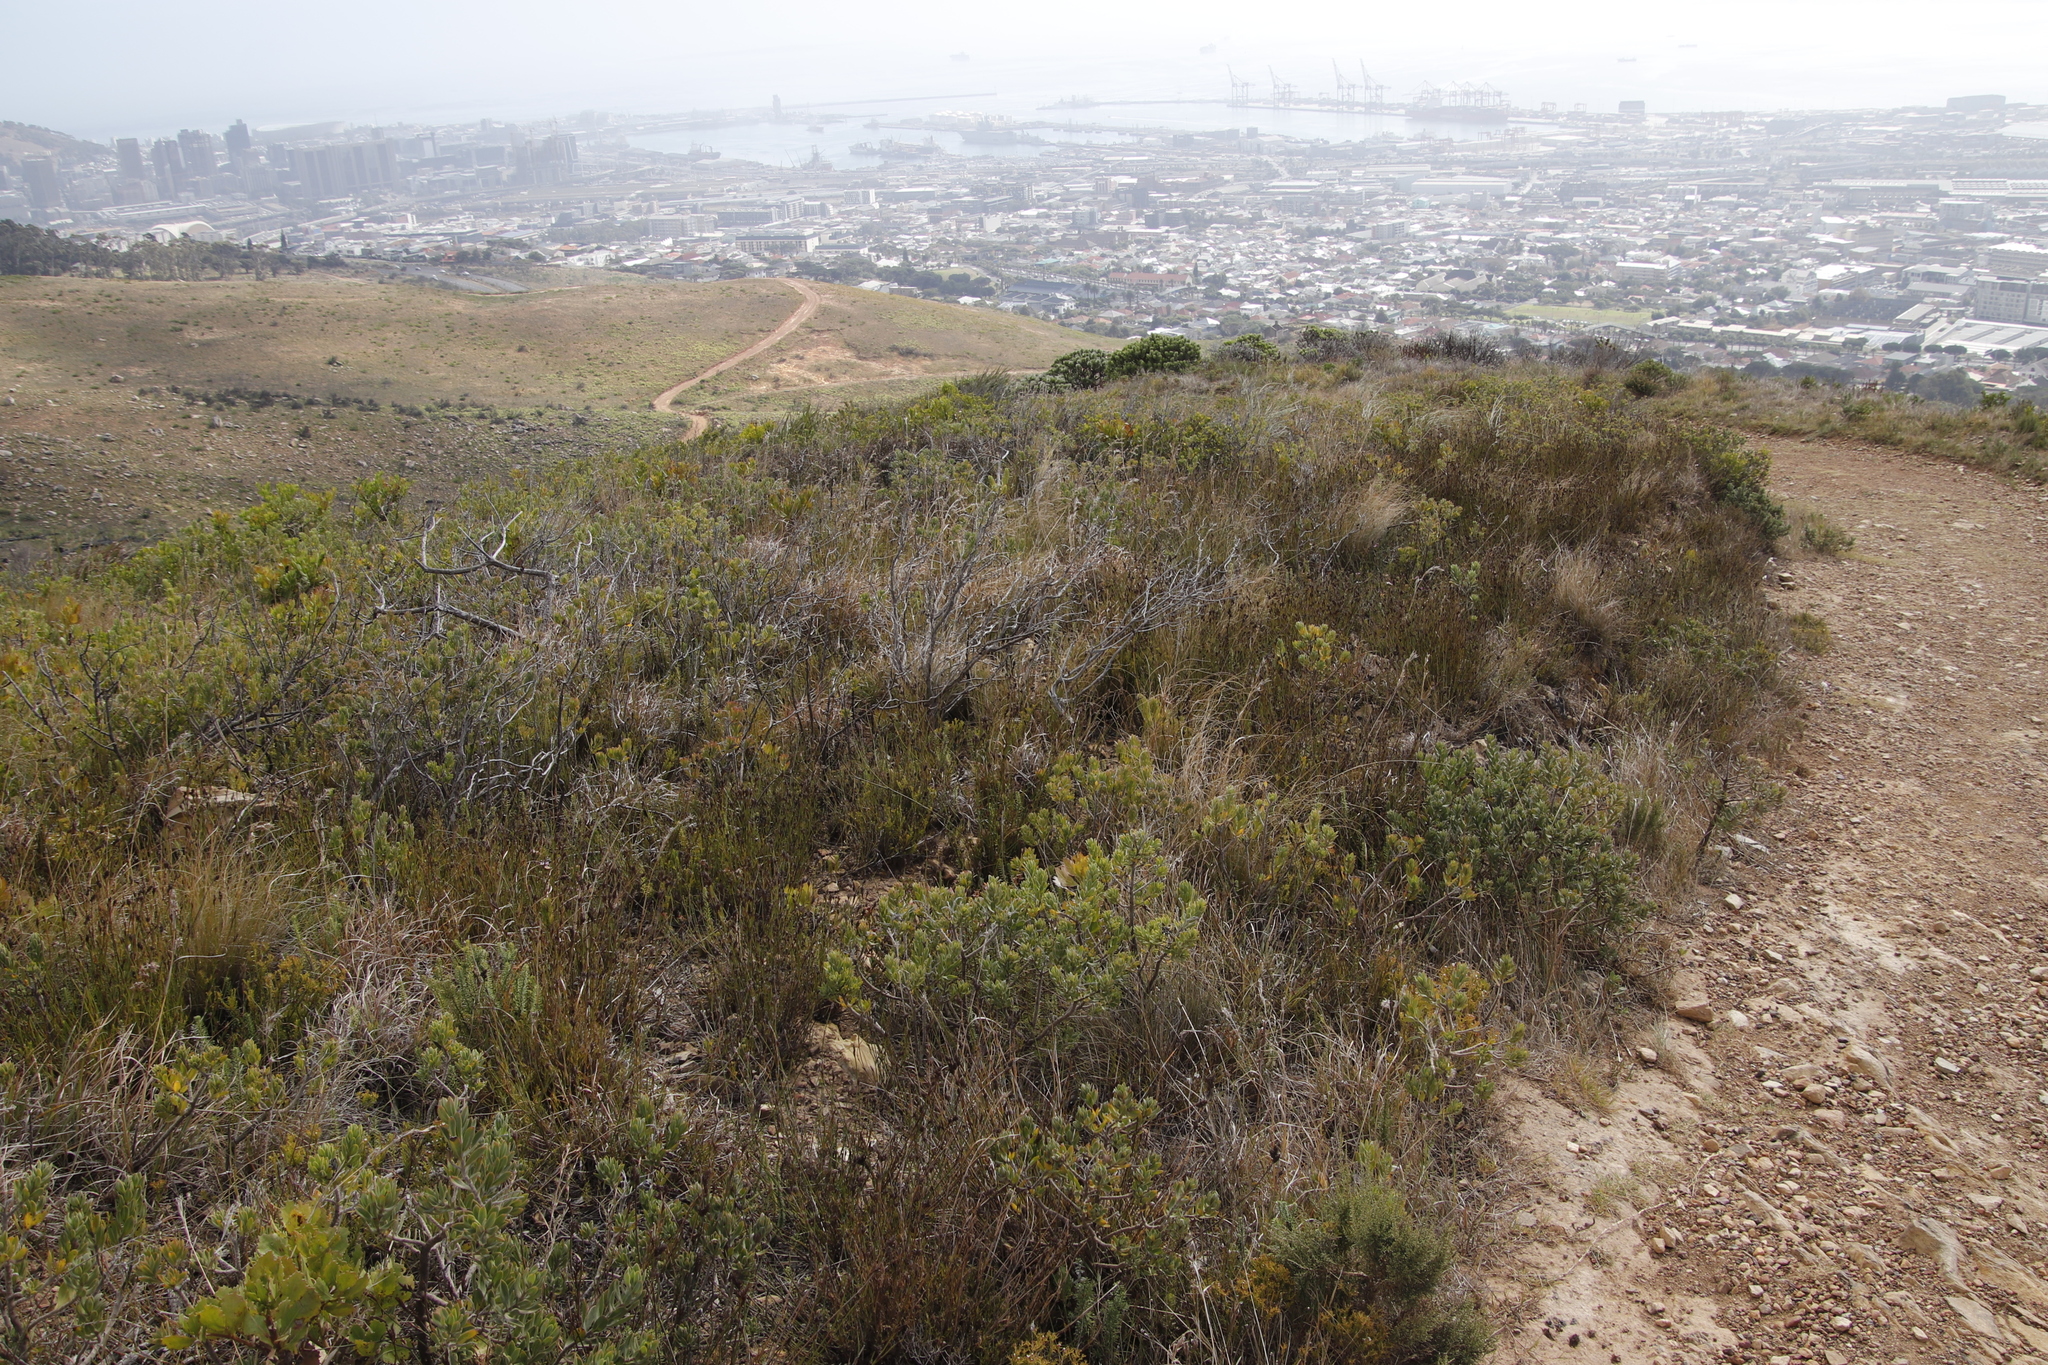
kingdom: Plantae
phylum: Tracheophyta
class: Liliopsida
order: Poales
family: Restionaceae
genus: Restio
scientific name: Restio capensis
